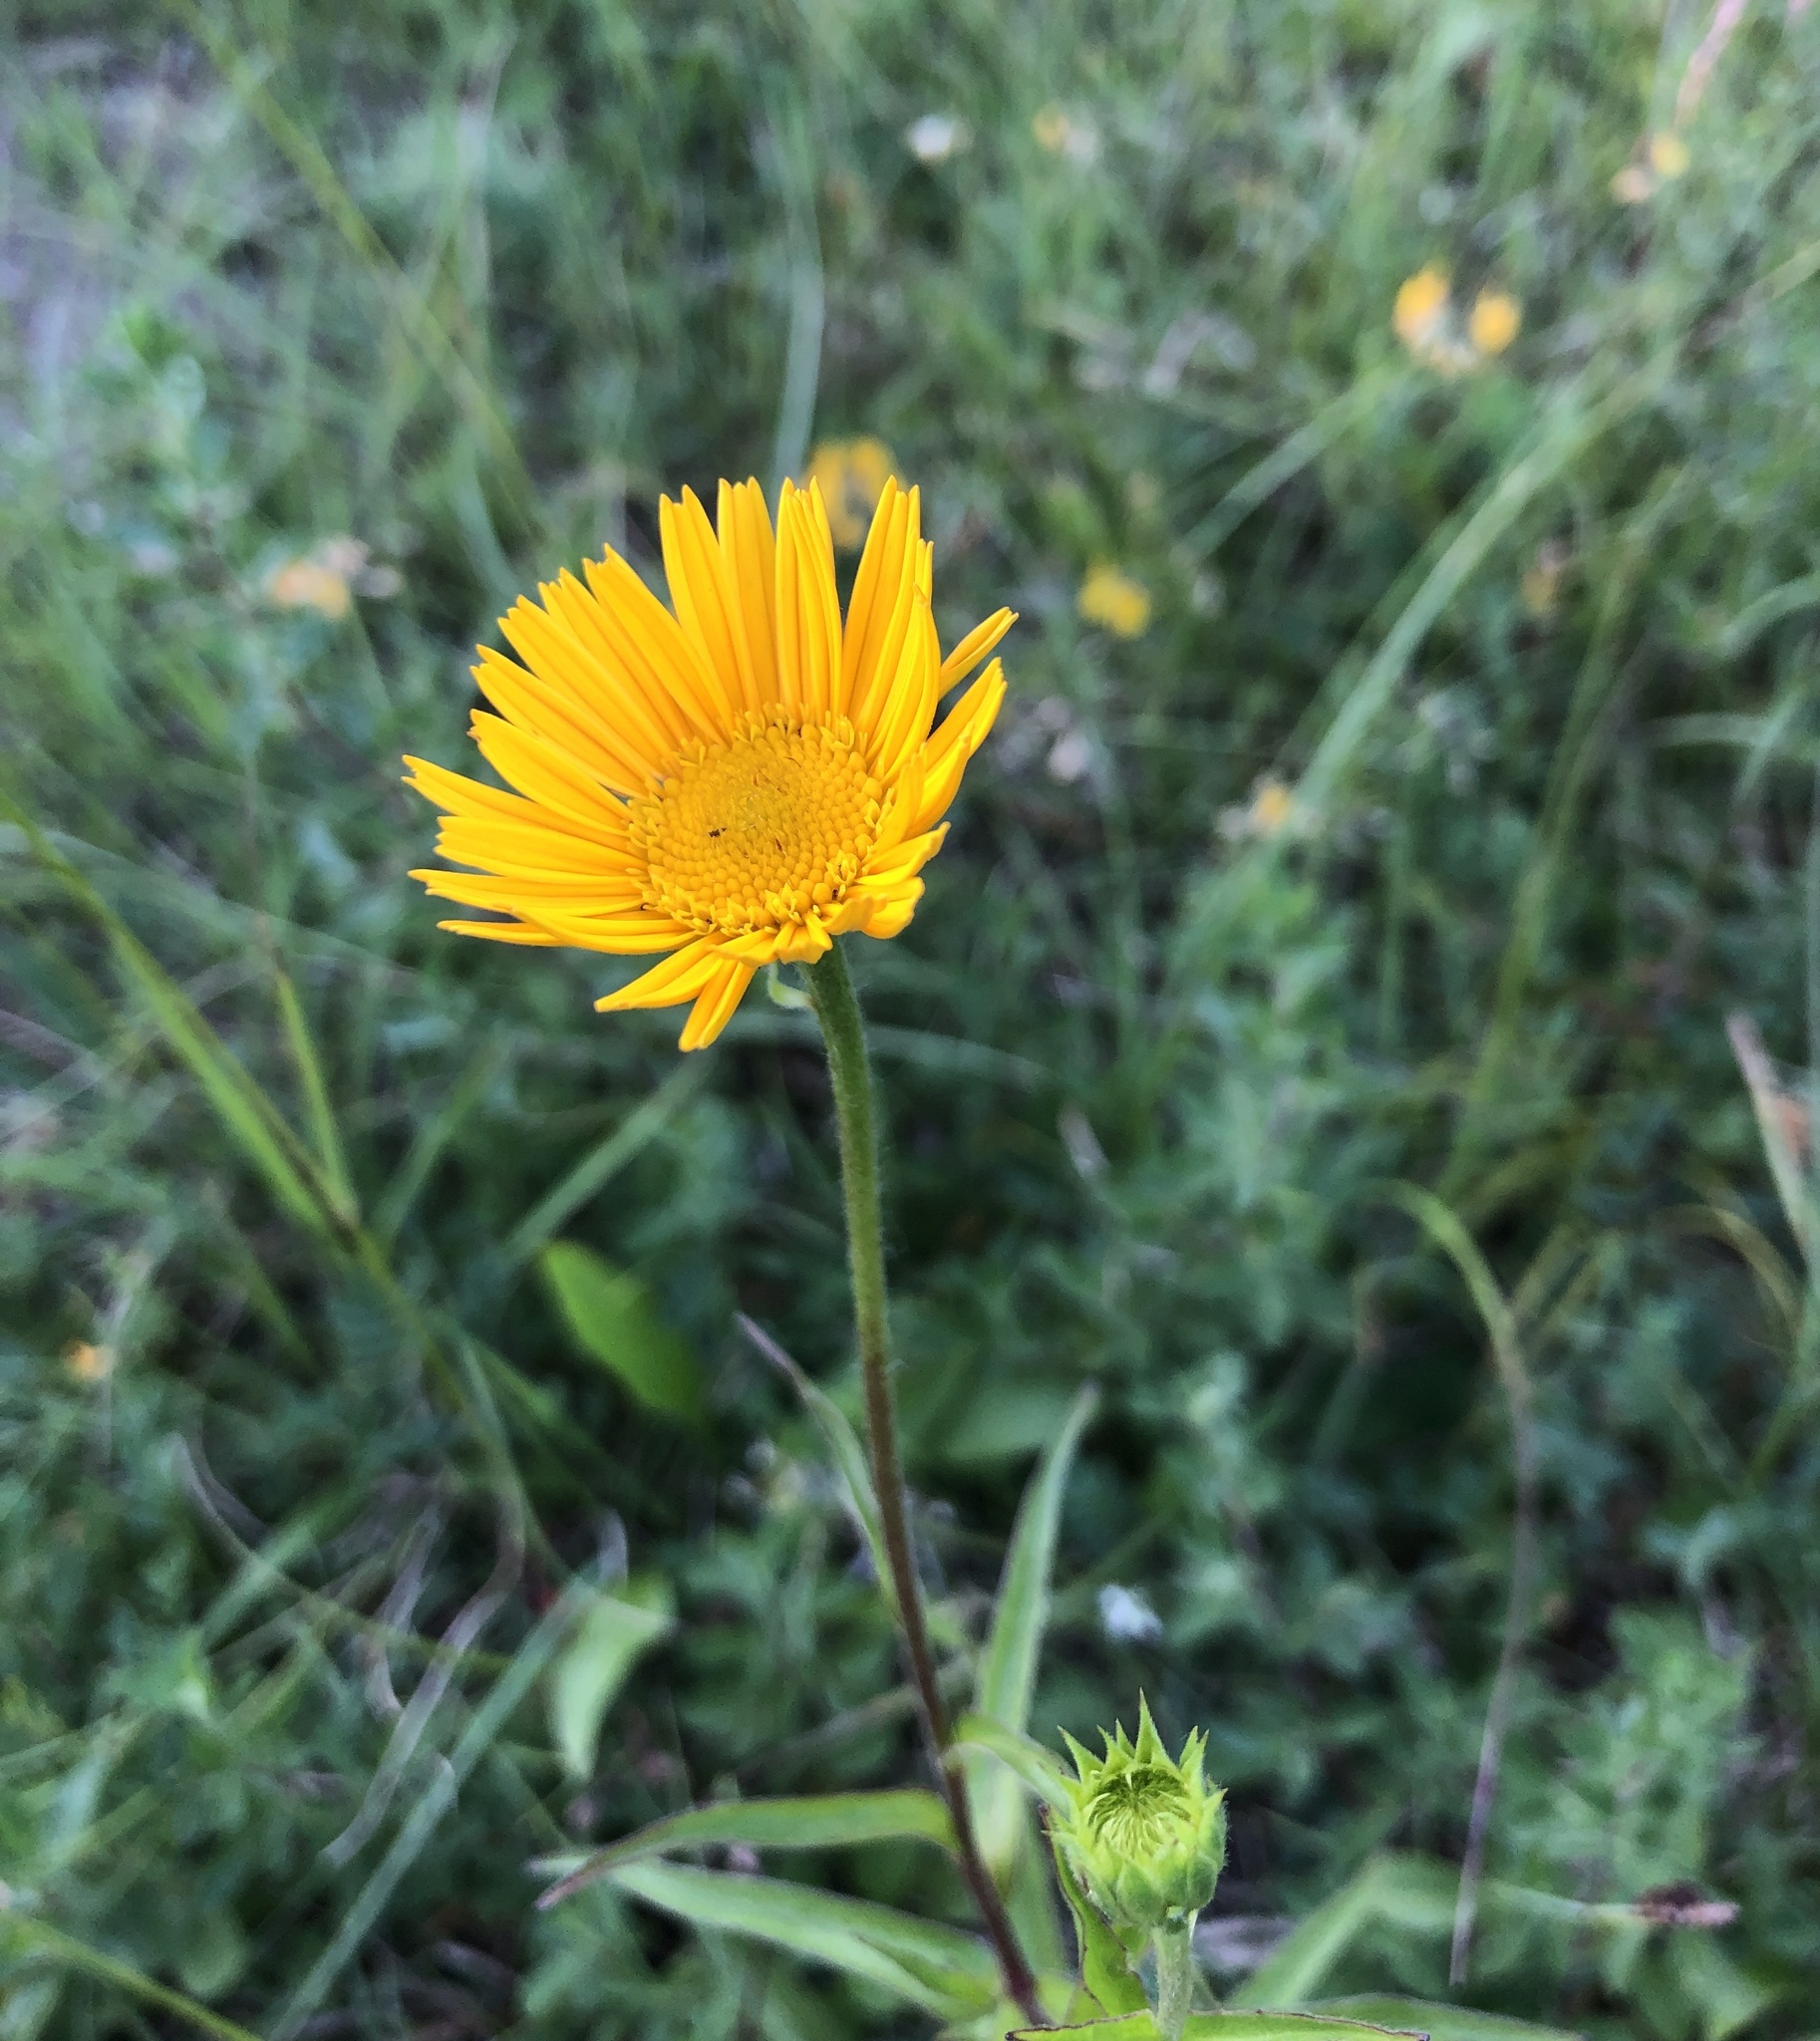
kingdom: Plantae
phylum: Tracheophyta
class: Magnoliopsida
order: Asterales
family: Asteraceae
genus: Buphthalmum
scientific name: Buphthalmum salicifolium
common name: Willow-leaved yellow-oxeye
